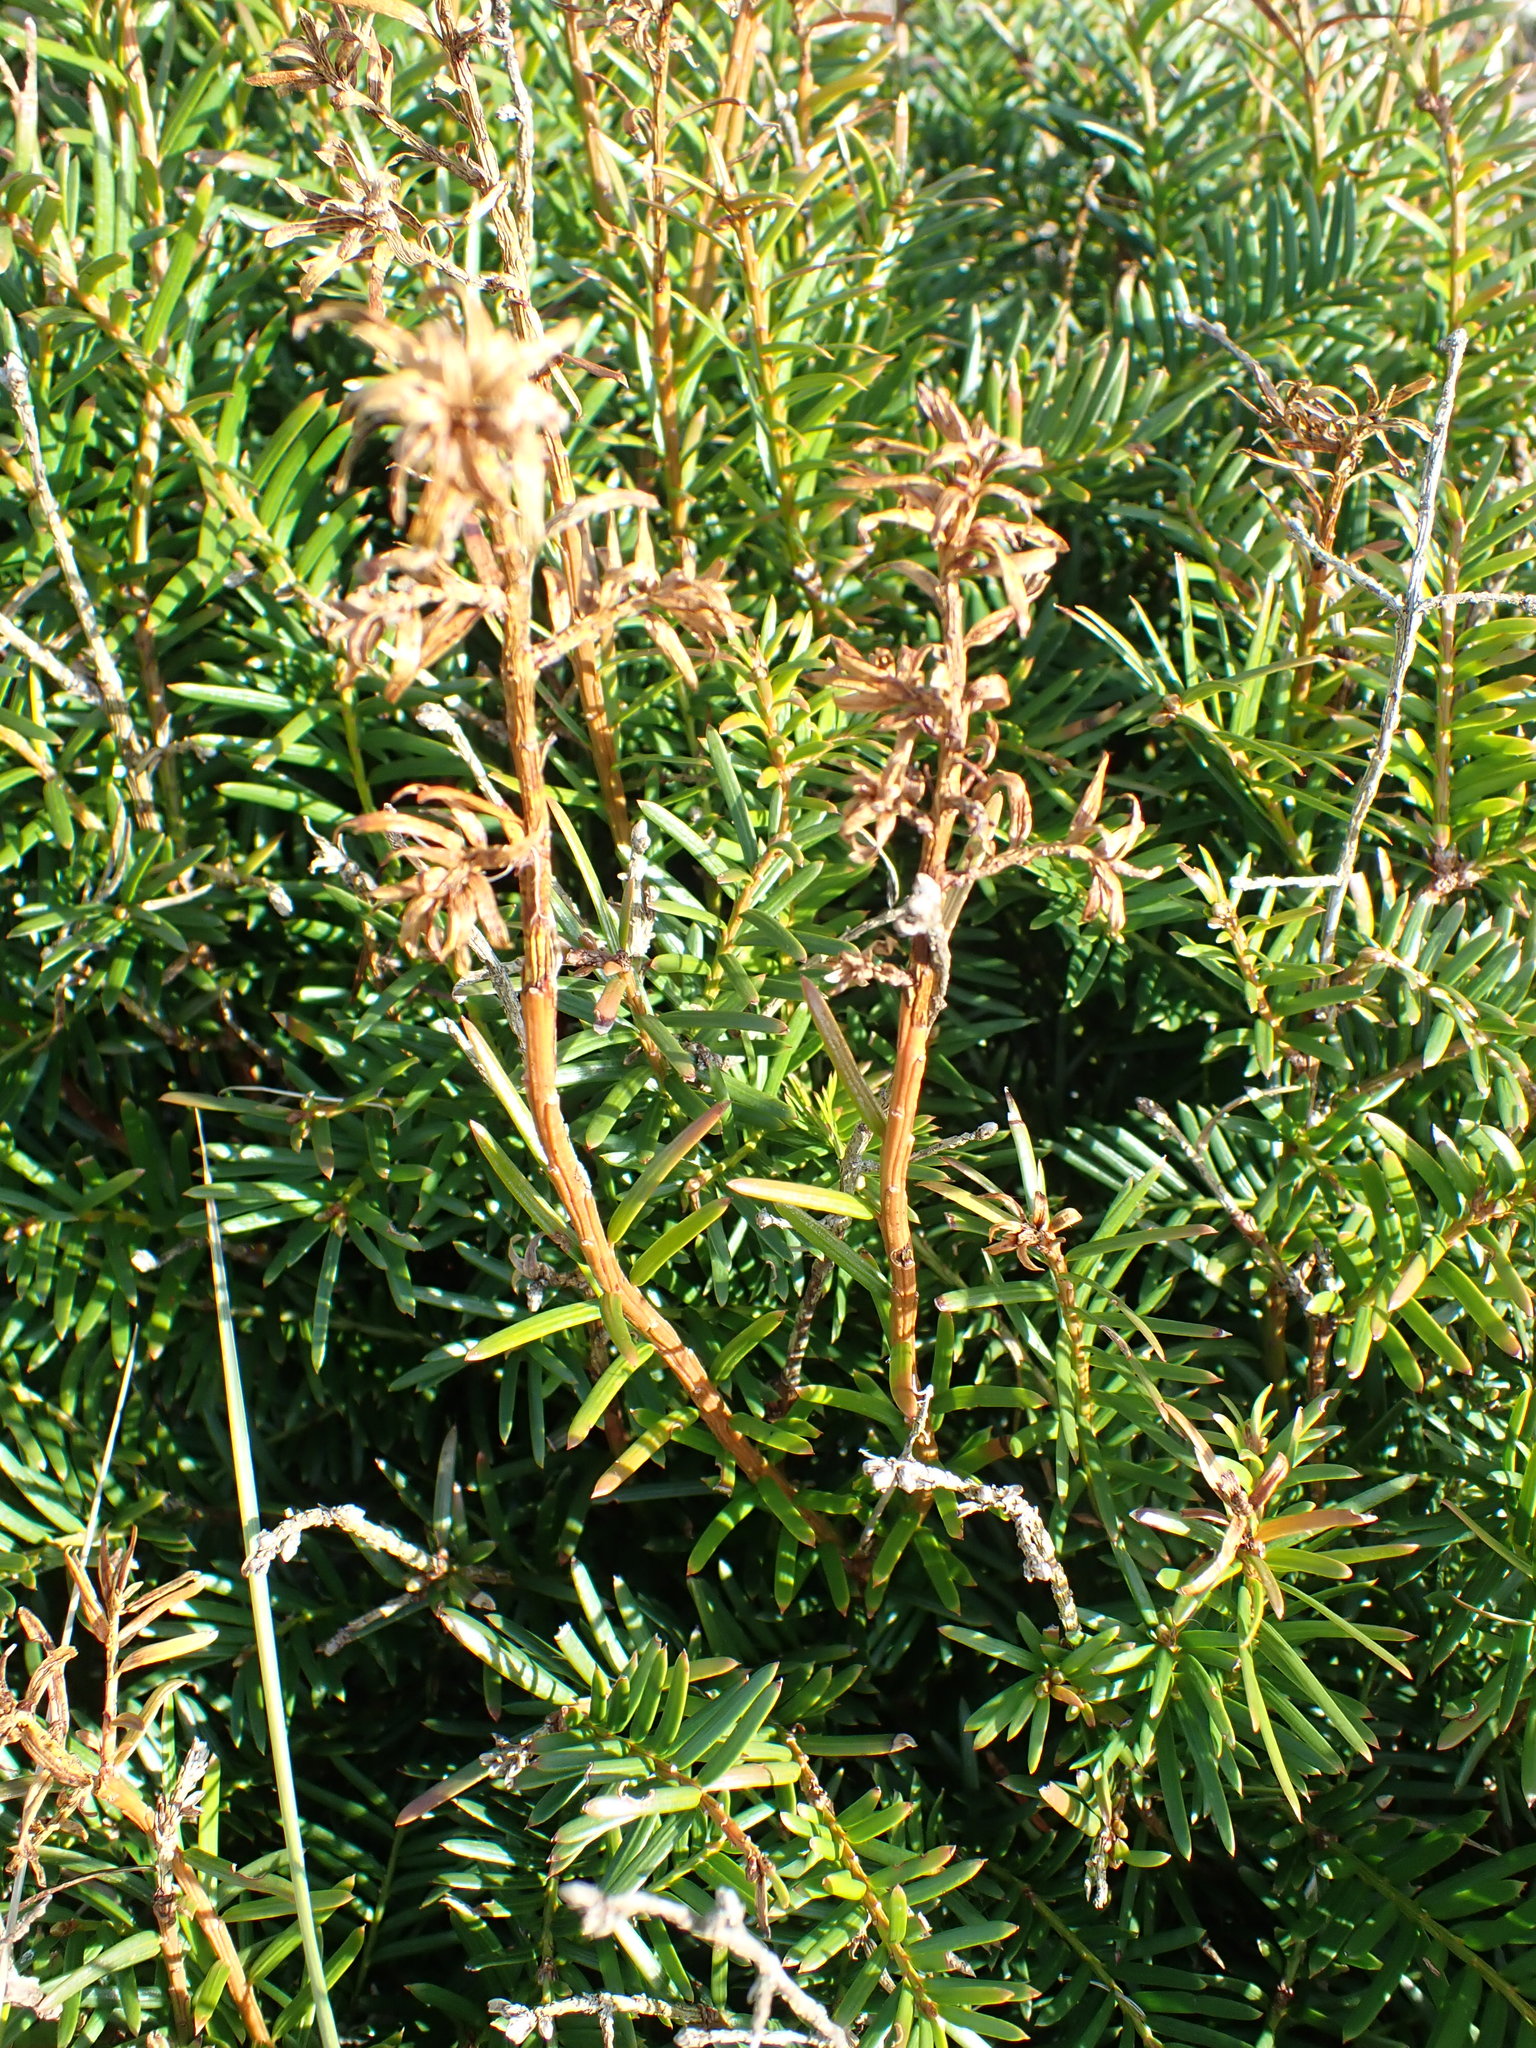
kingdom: Plantae
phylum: Tracheophyta
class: Pinopsida
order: Pinales
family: Taxaceae
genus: Taxus
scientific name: Taxus baccata
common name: Yew
